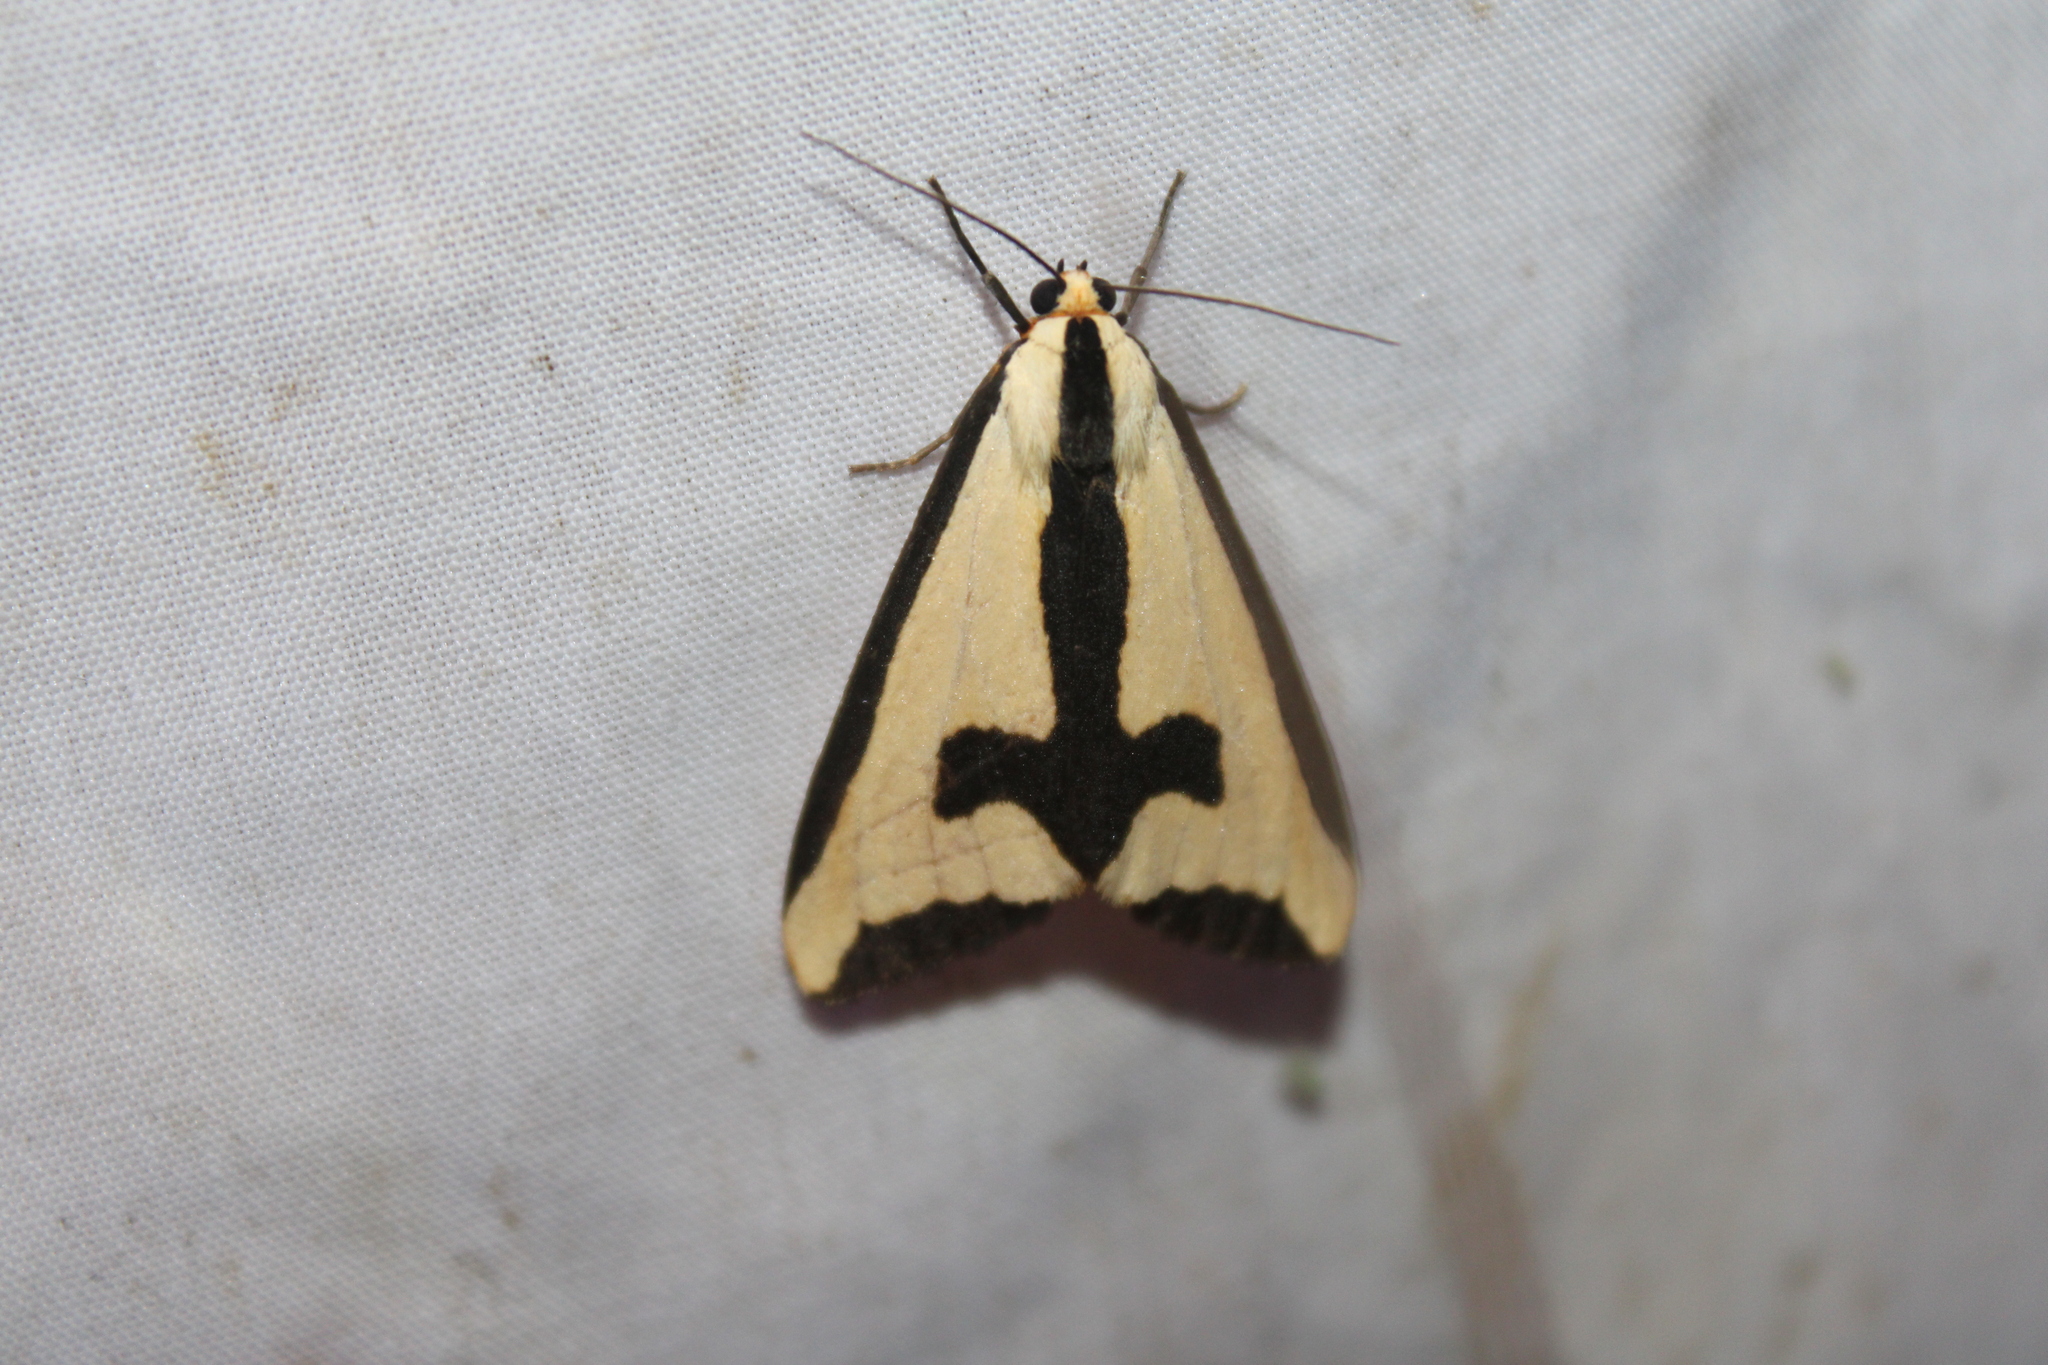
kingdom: Animalia
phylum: Arthropoda
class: Insecta
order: Lepidoptera
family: Erebidae
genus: Haploa
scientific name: Haploa clymene
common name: Clymene moth
